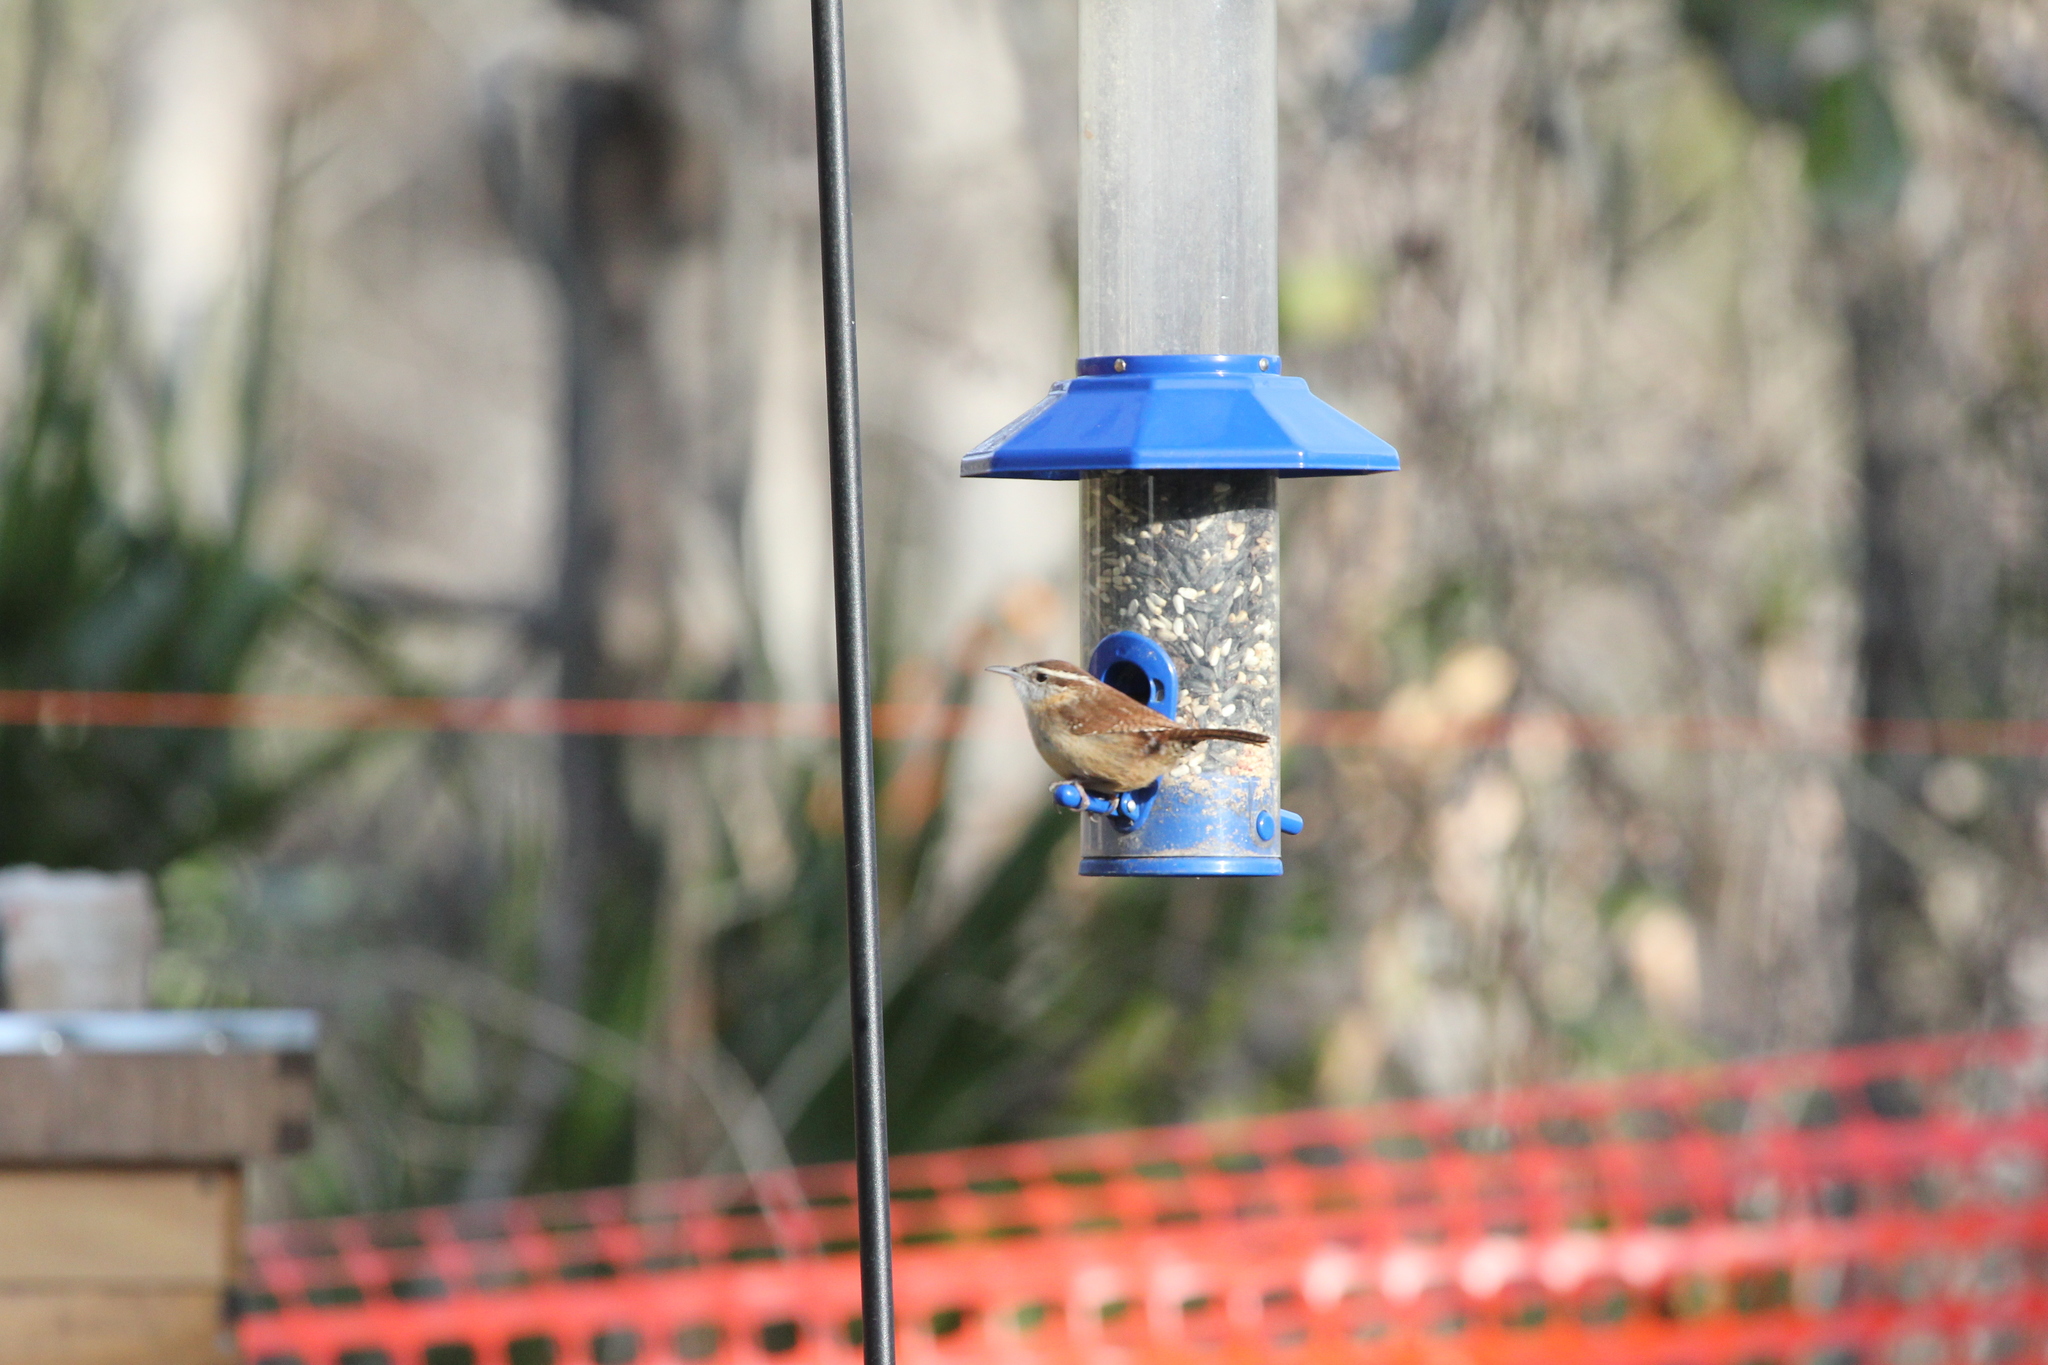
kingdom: Animalia
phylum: Chordata
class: Aves
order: Passeriformes
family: Troglodytidae
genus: Thryothorus
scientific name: Thryothorus ludovicianus
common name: Carolina wren
